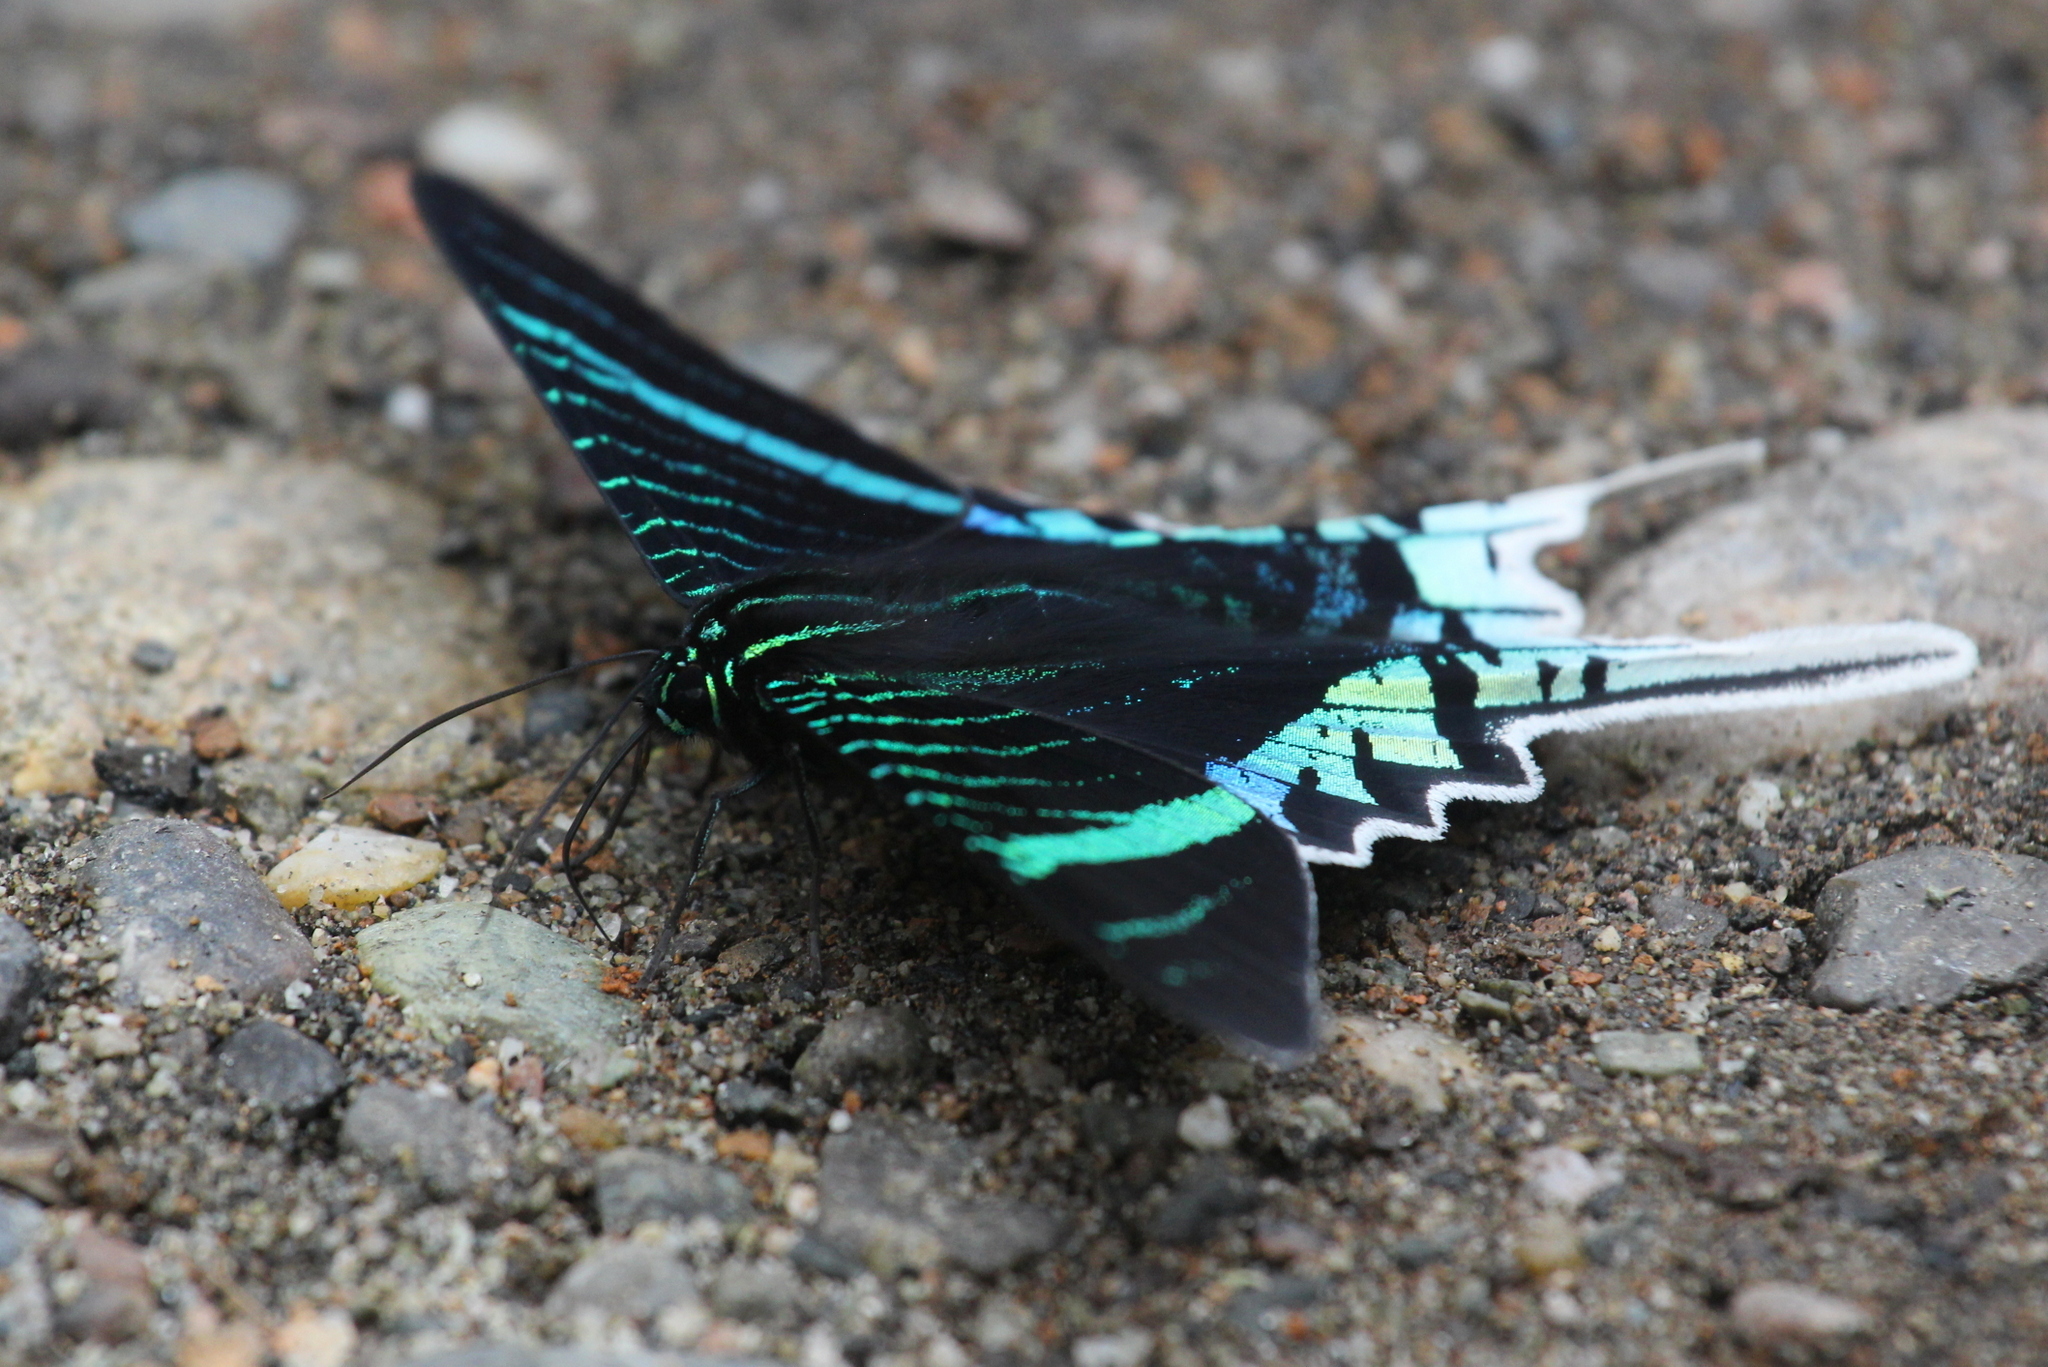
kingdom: Animalia
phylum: Arthropoda
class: Insecta
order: Lepidoptera
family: Uraniidae
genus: Urania
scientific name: Urania leilus
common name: Peacock moth
